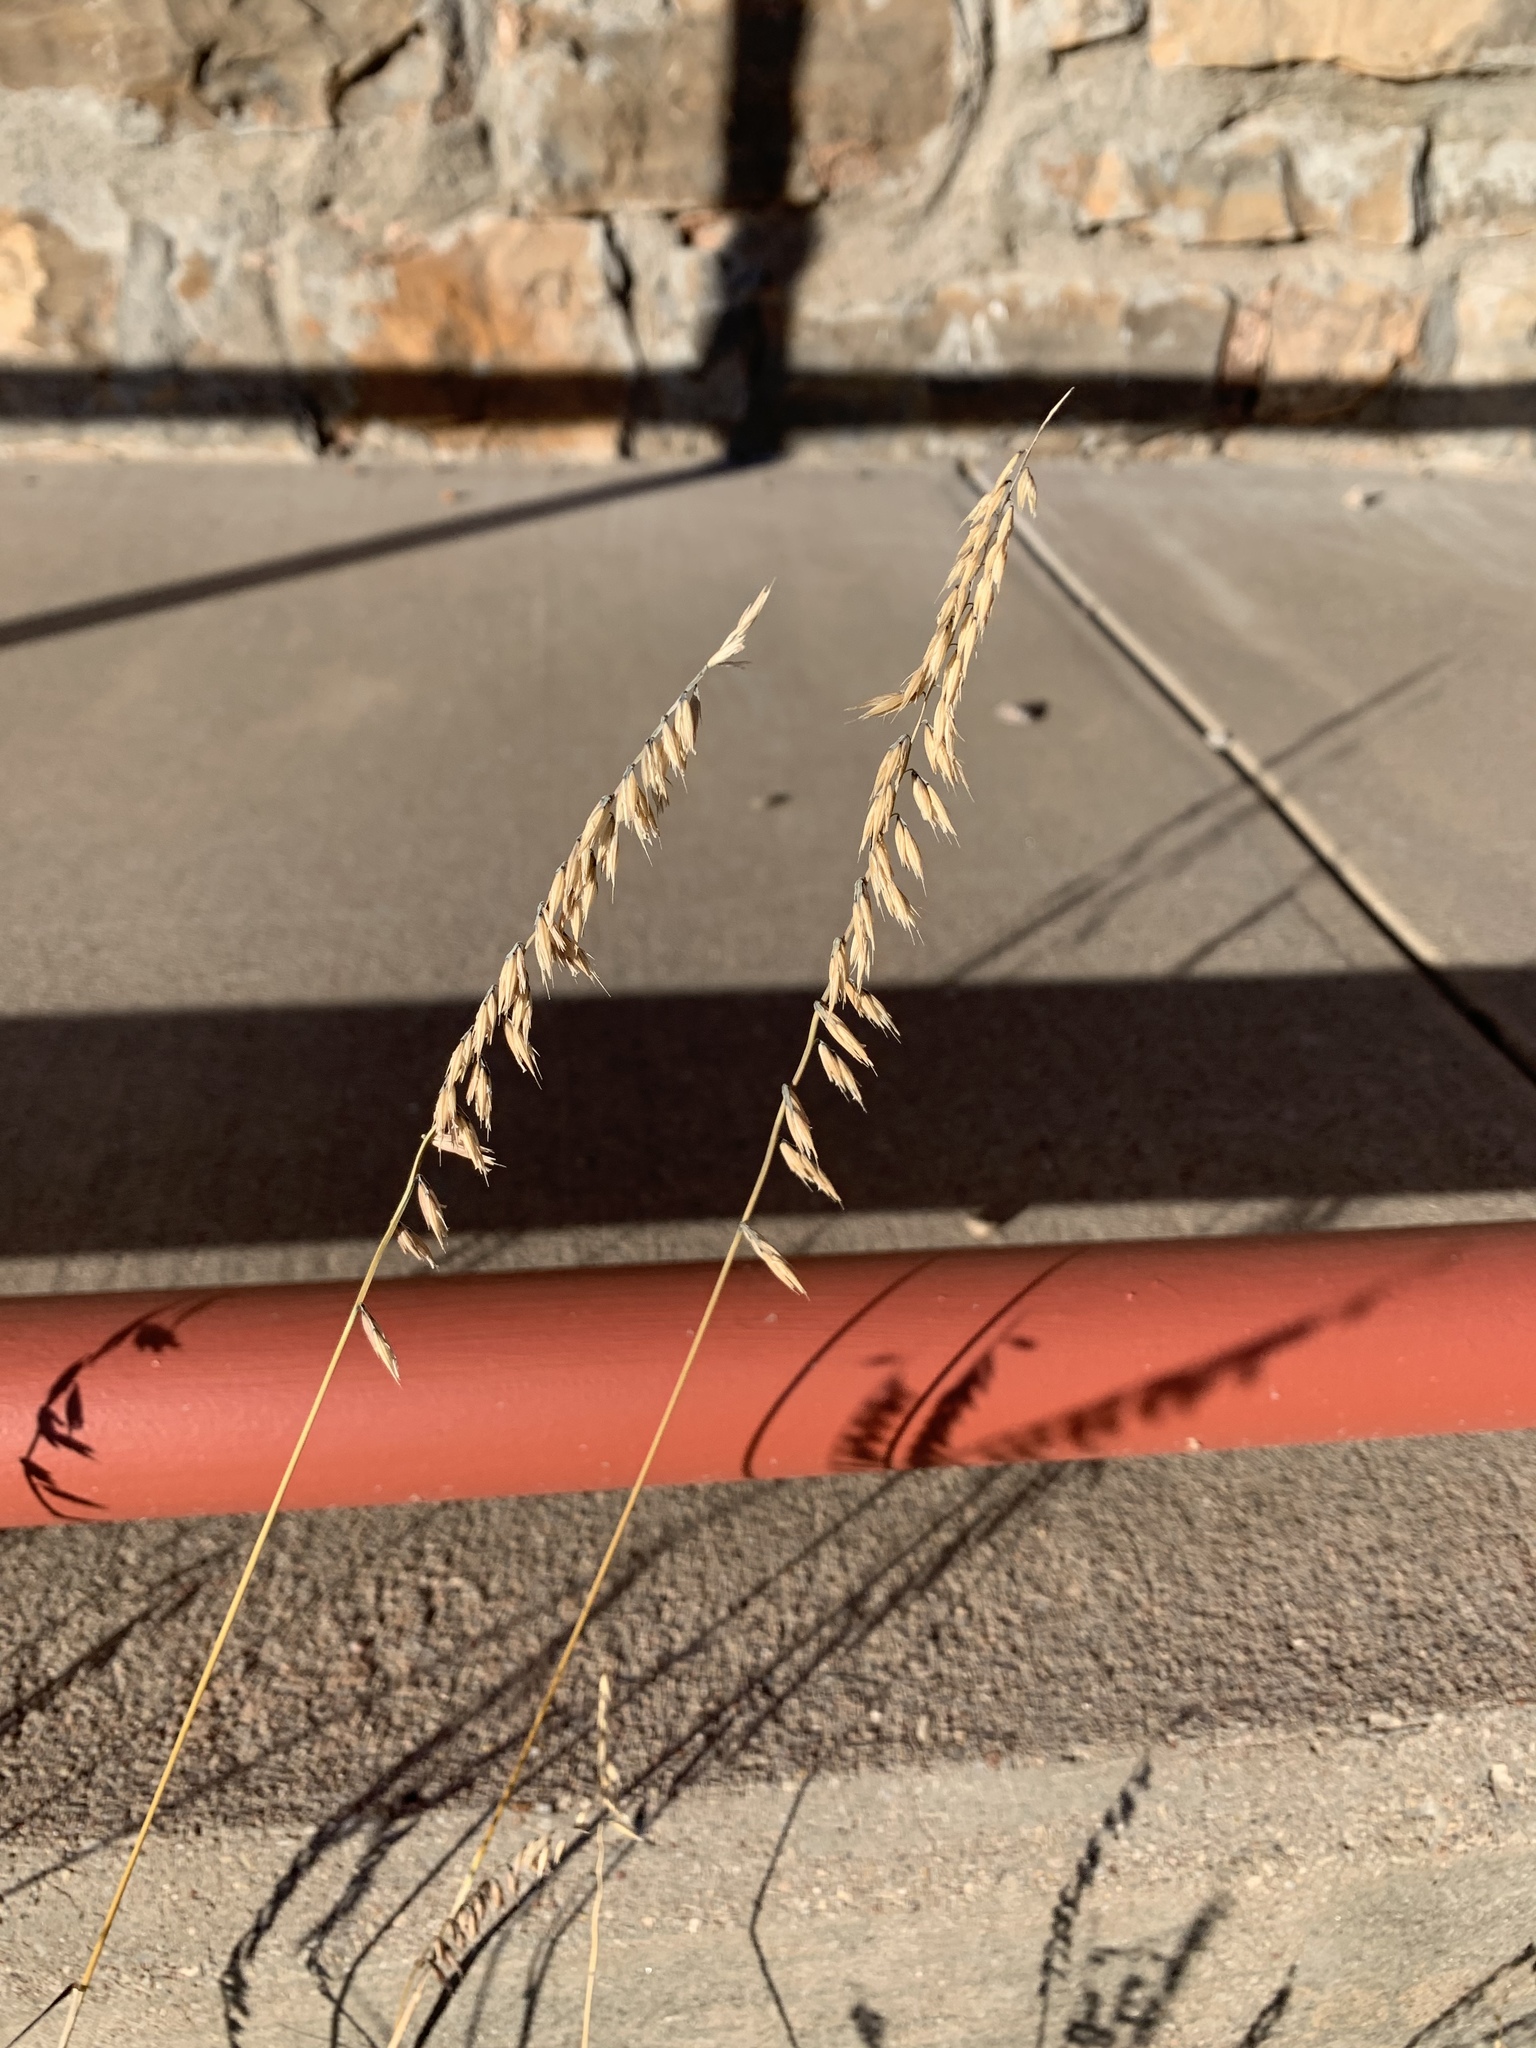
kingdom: Plantae
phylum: Tracheophyta
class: Liliopsida
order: Poales
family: Poaceae
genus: Bouteloua
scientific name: Bouteloua curtipendula
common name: Side-oats grama
